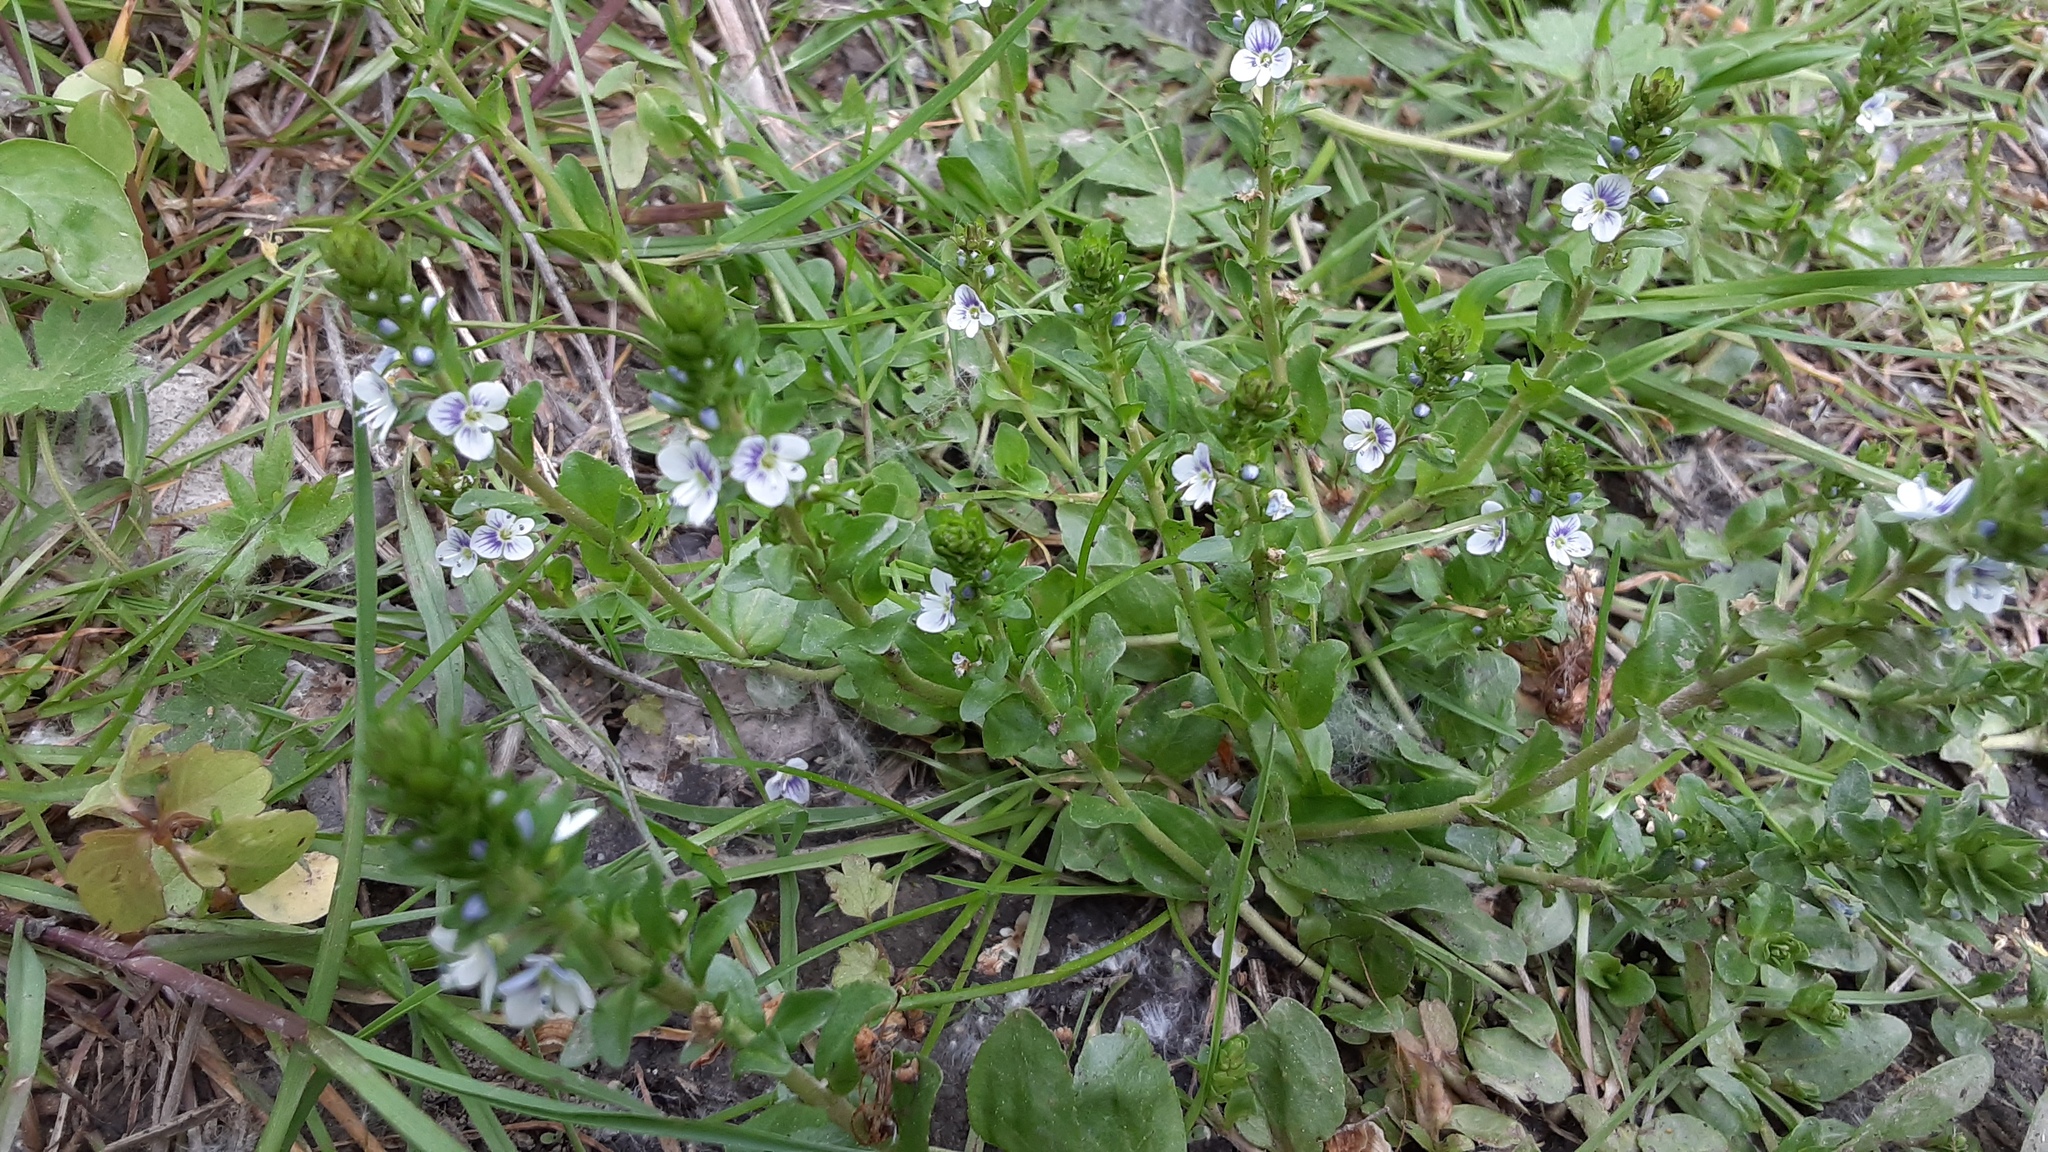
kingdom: Plantae
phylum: Tracheophyta
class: Magnoliopsida
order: Lamiales
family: Plantaginaceae
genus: Veronica
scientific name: Veronica serpyllifolia
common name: Thyme-leaved speedwell
